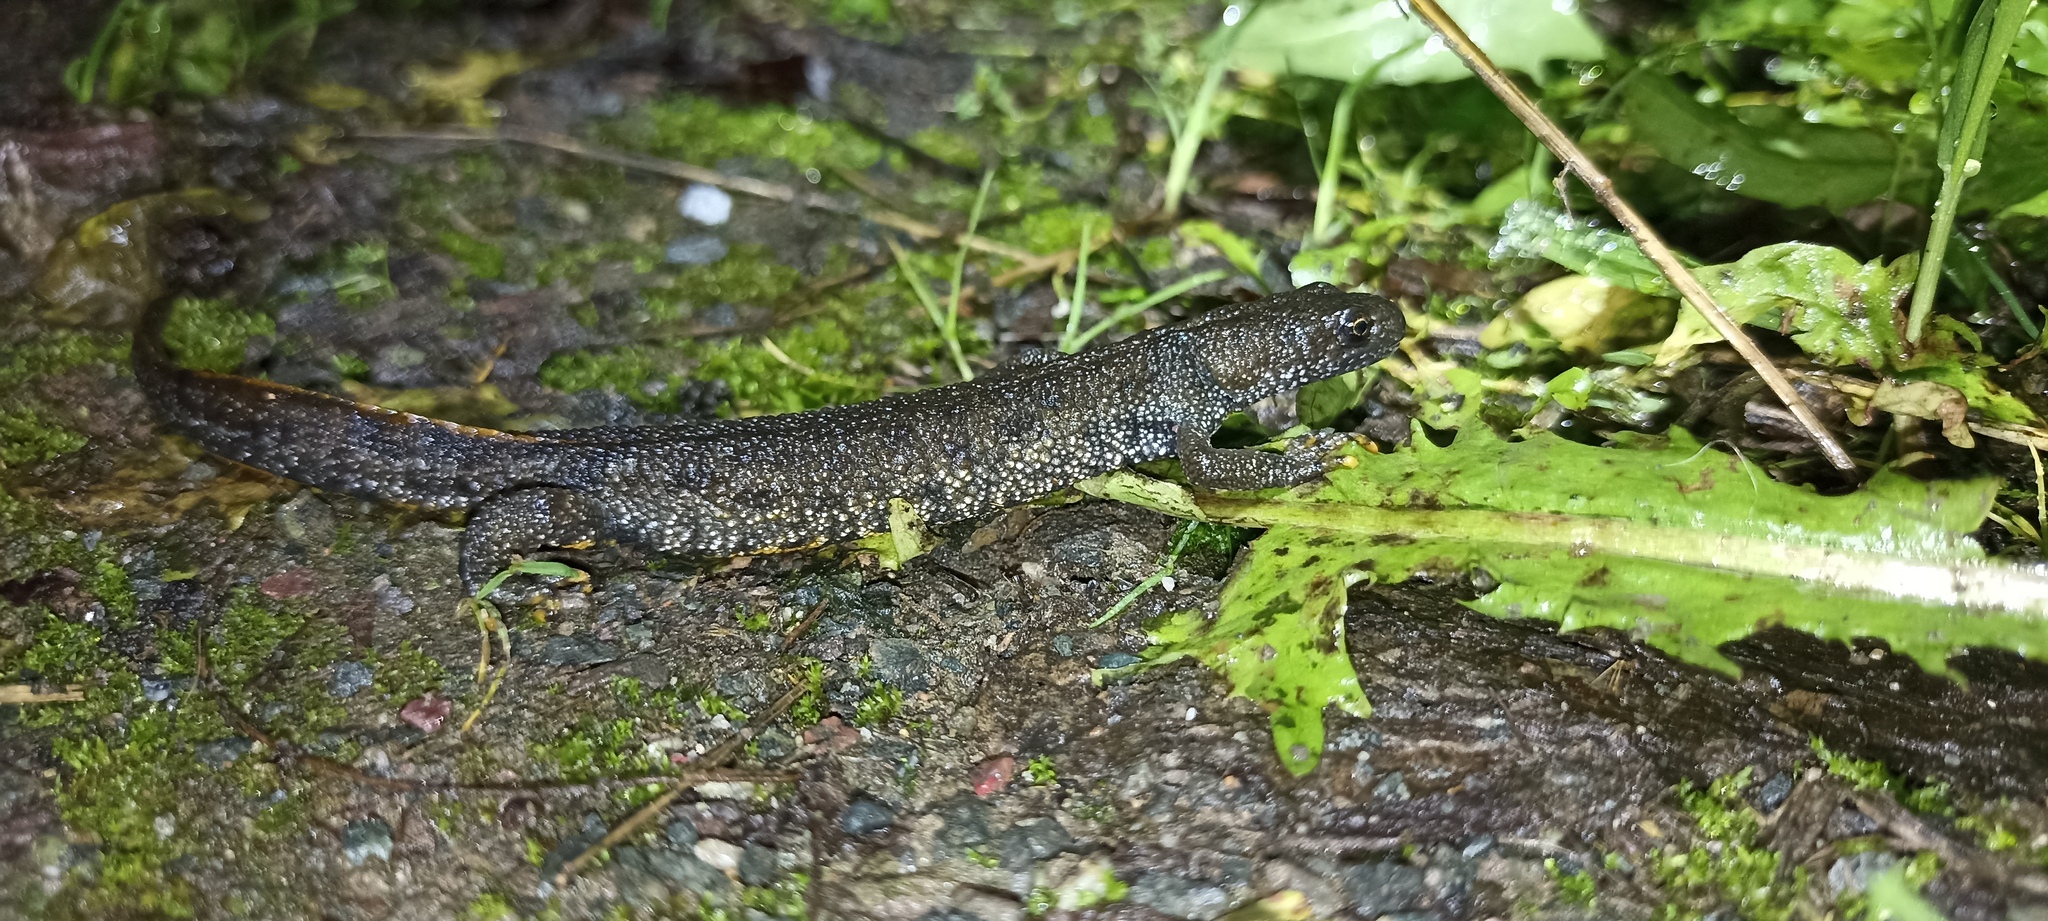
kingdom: Animalia
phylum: Chordata
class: Amphibia
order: Caudata
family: Salamandridae
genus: Triturus
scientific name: Triturus cristatus
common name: Crested newt
